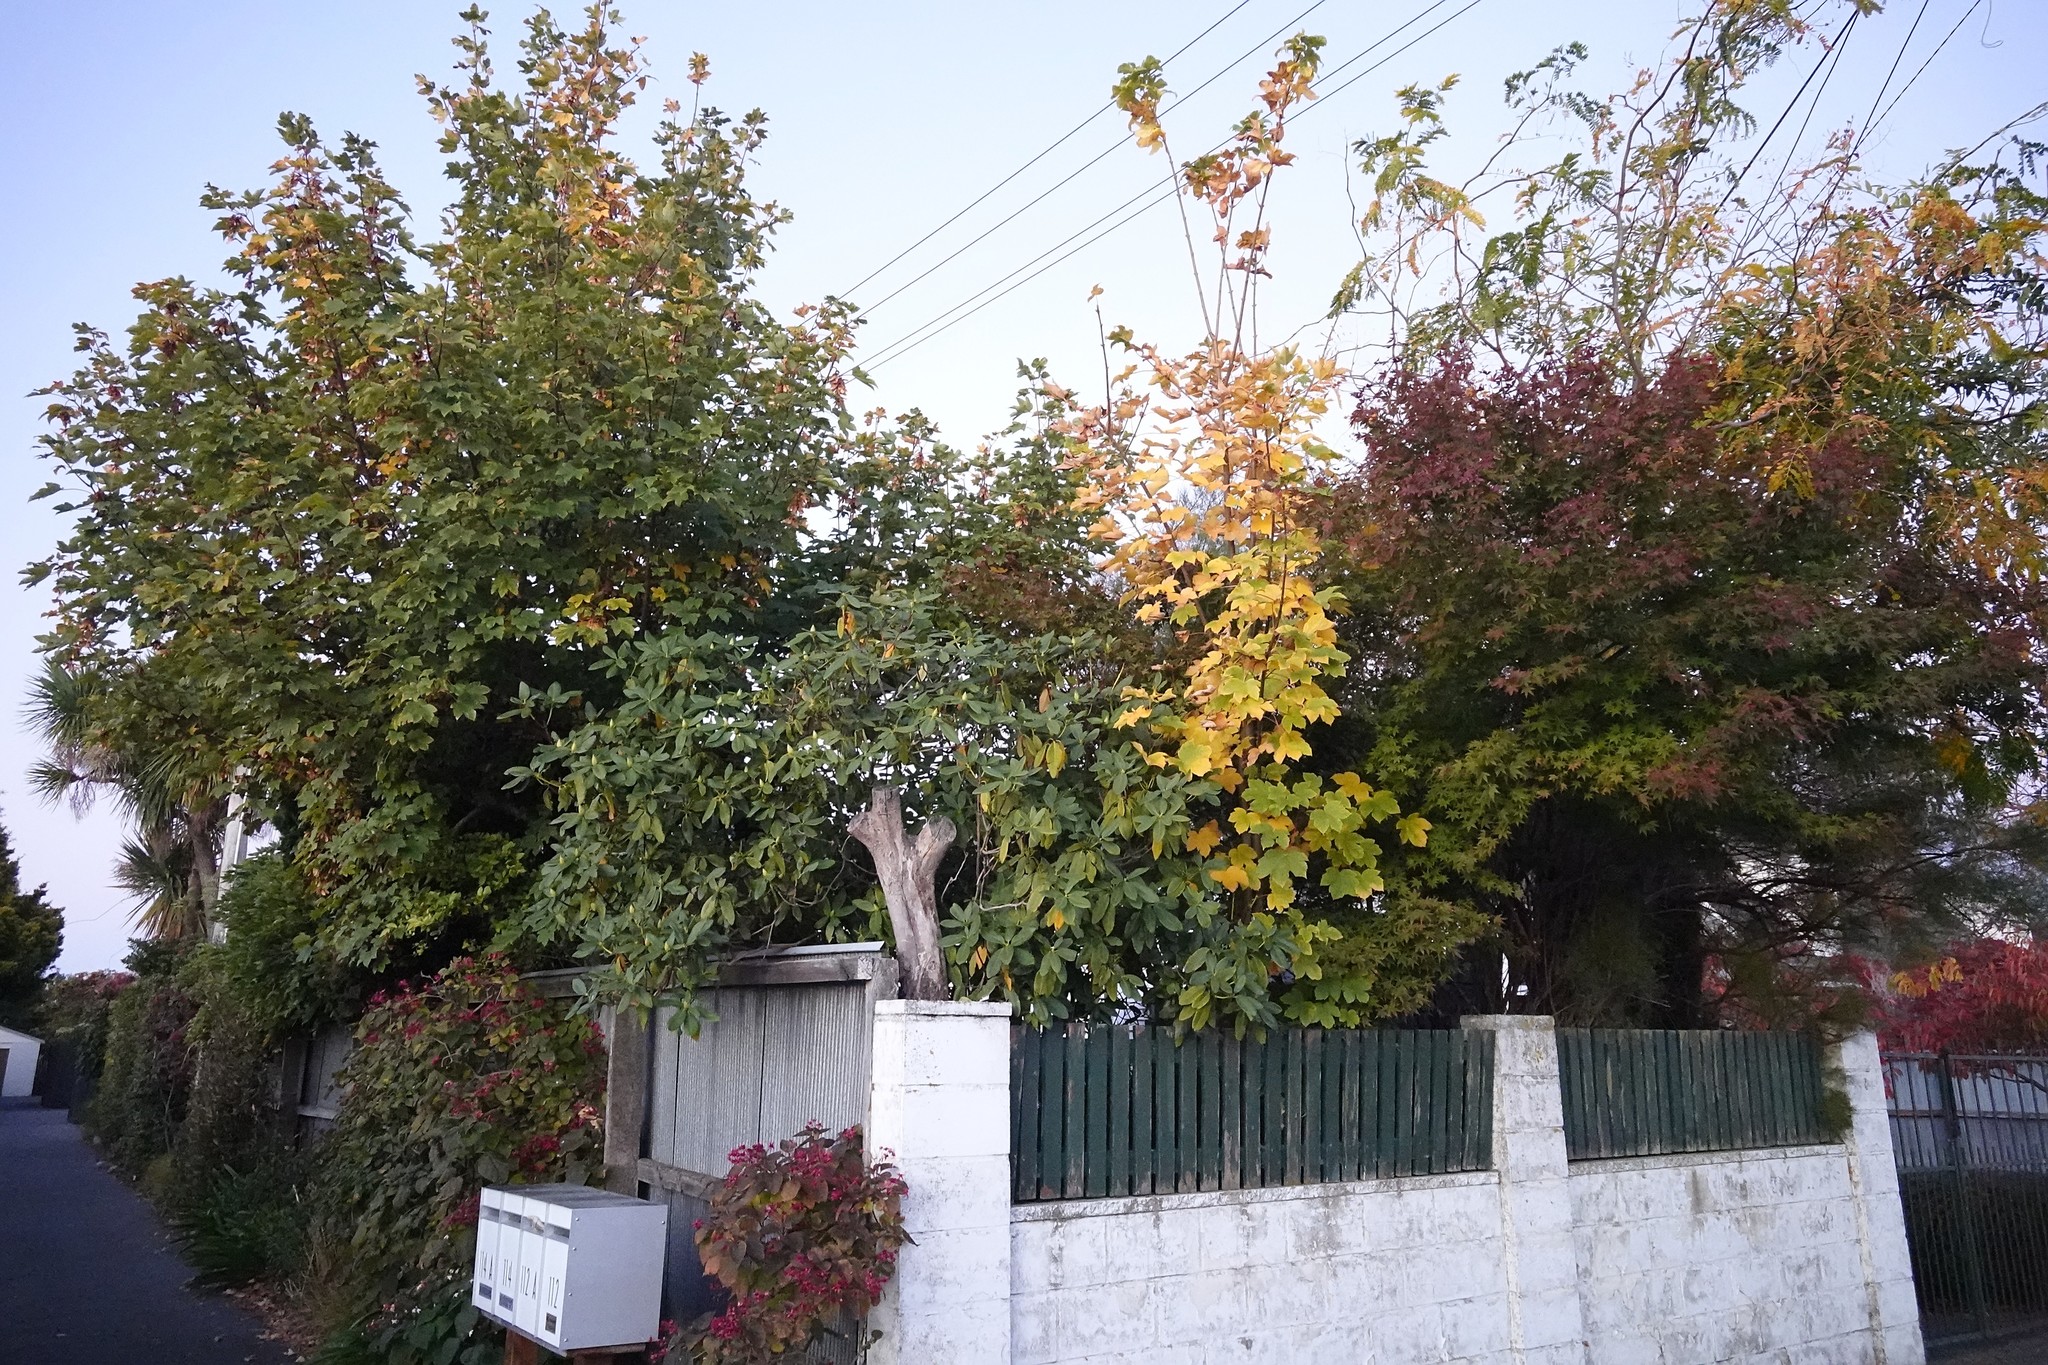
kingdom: Plantae
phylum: Tracheophyta
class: Magnoliopsida
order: Sapindales
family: Sapindaceae
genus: Acer
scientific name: Acer pseudoplatanus
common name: Sycamore
